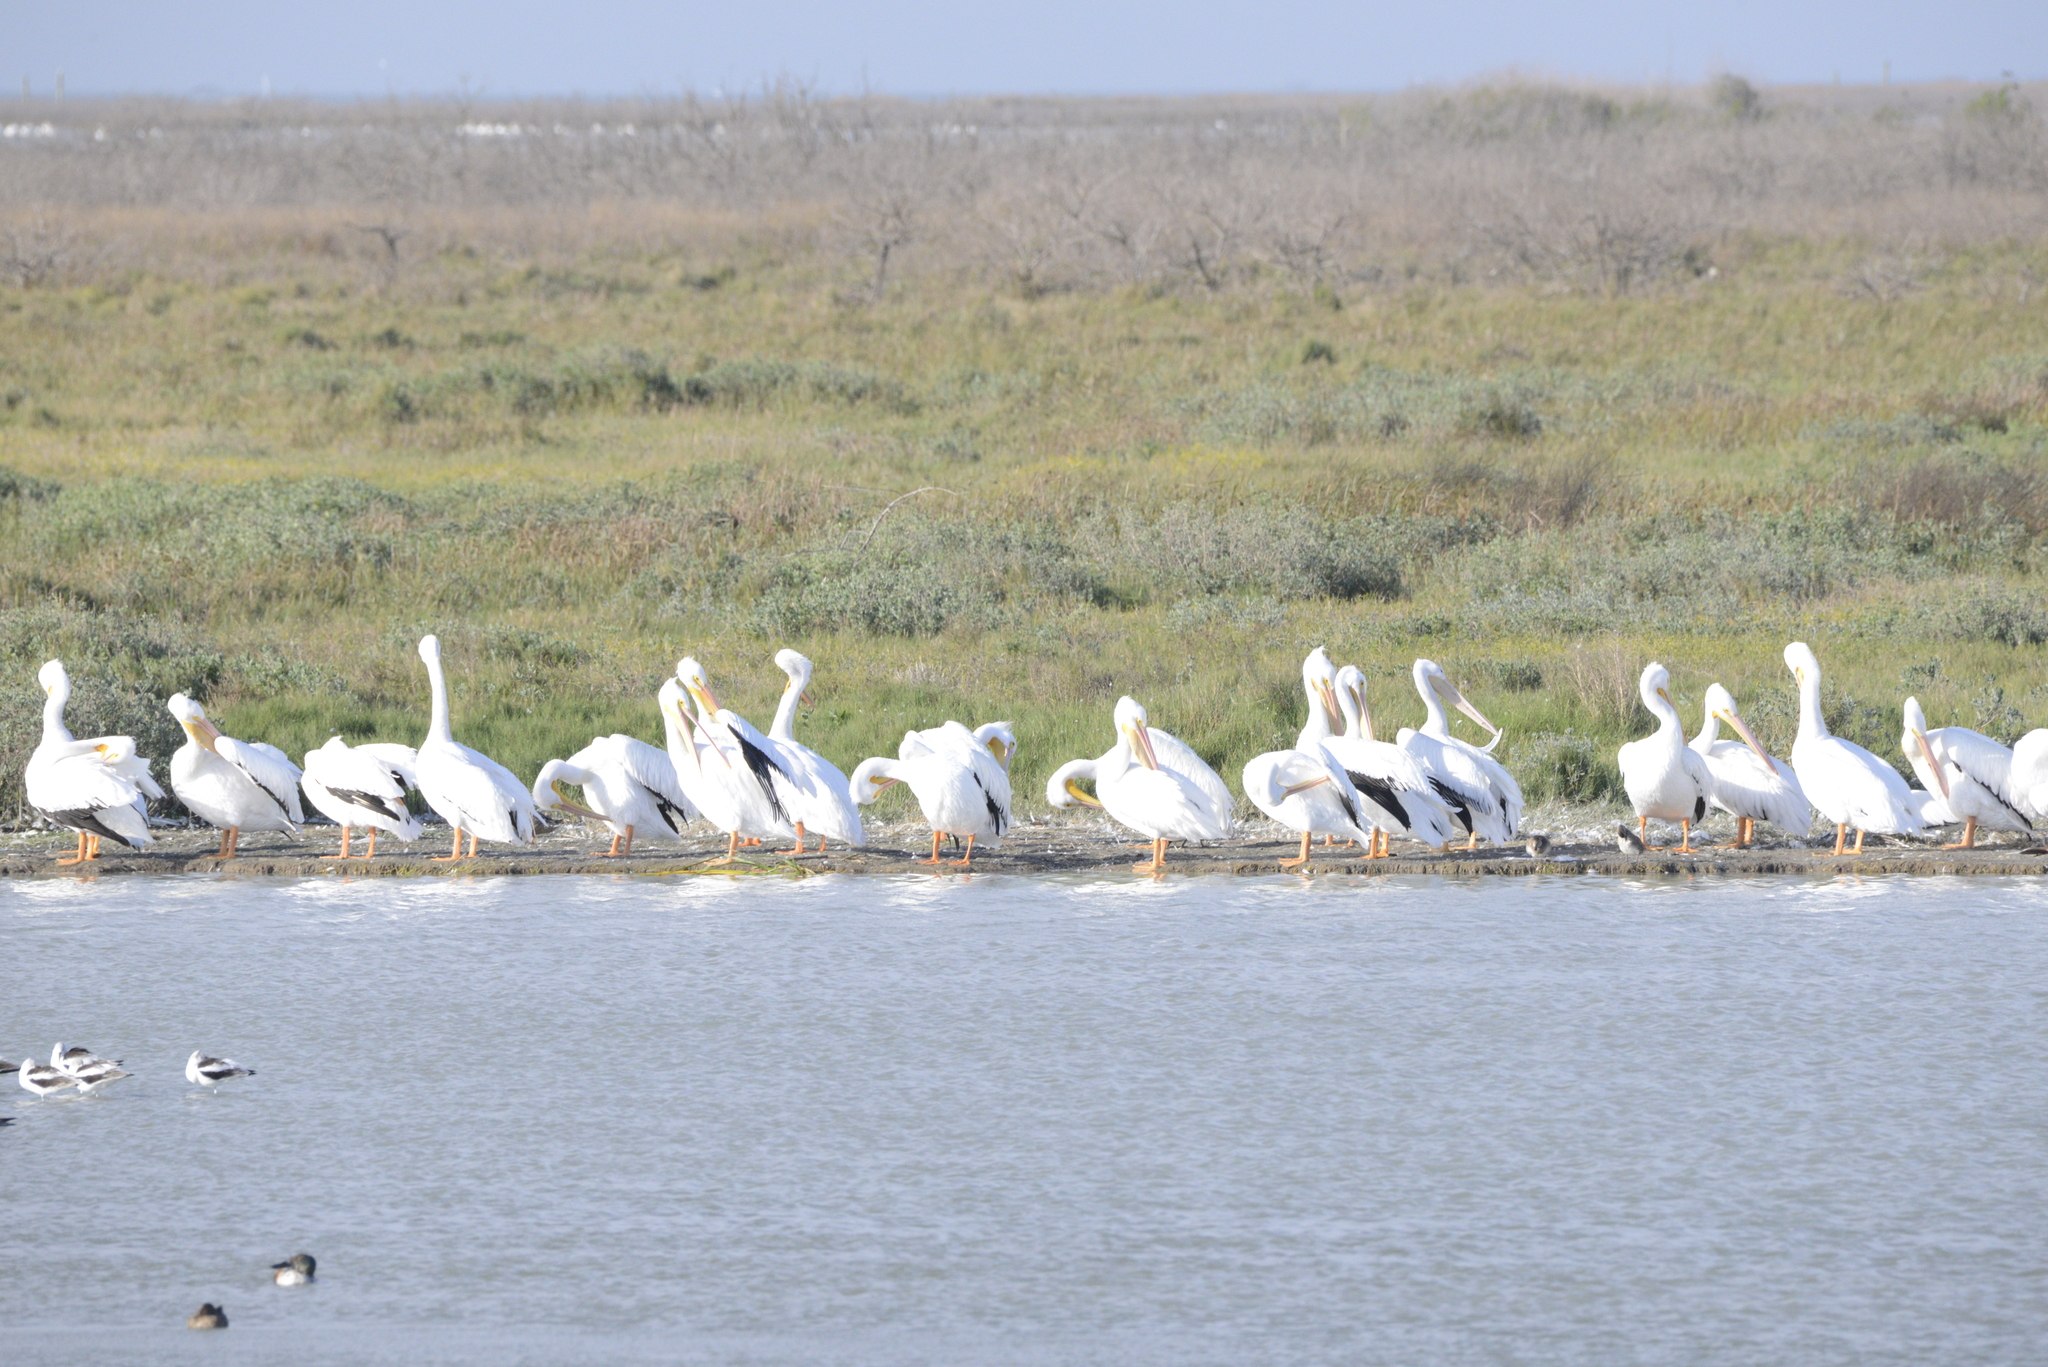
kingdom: Animalia
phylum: Chordata
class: Aves
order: Pelecaniformes
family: Pelecanidae
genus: Pelecanus
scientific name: Pelecanus erythrorhynchos
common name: American white pelican
